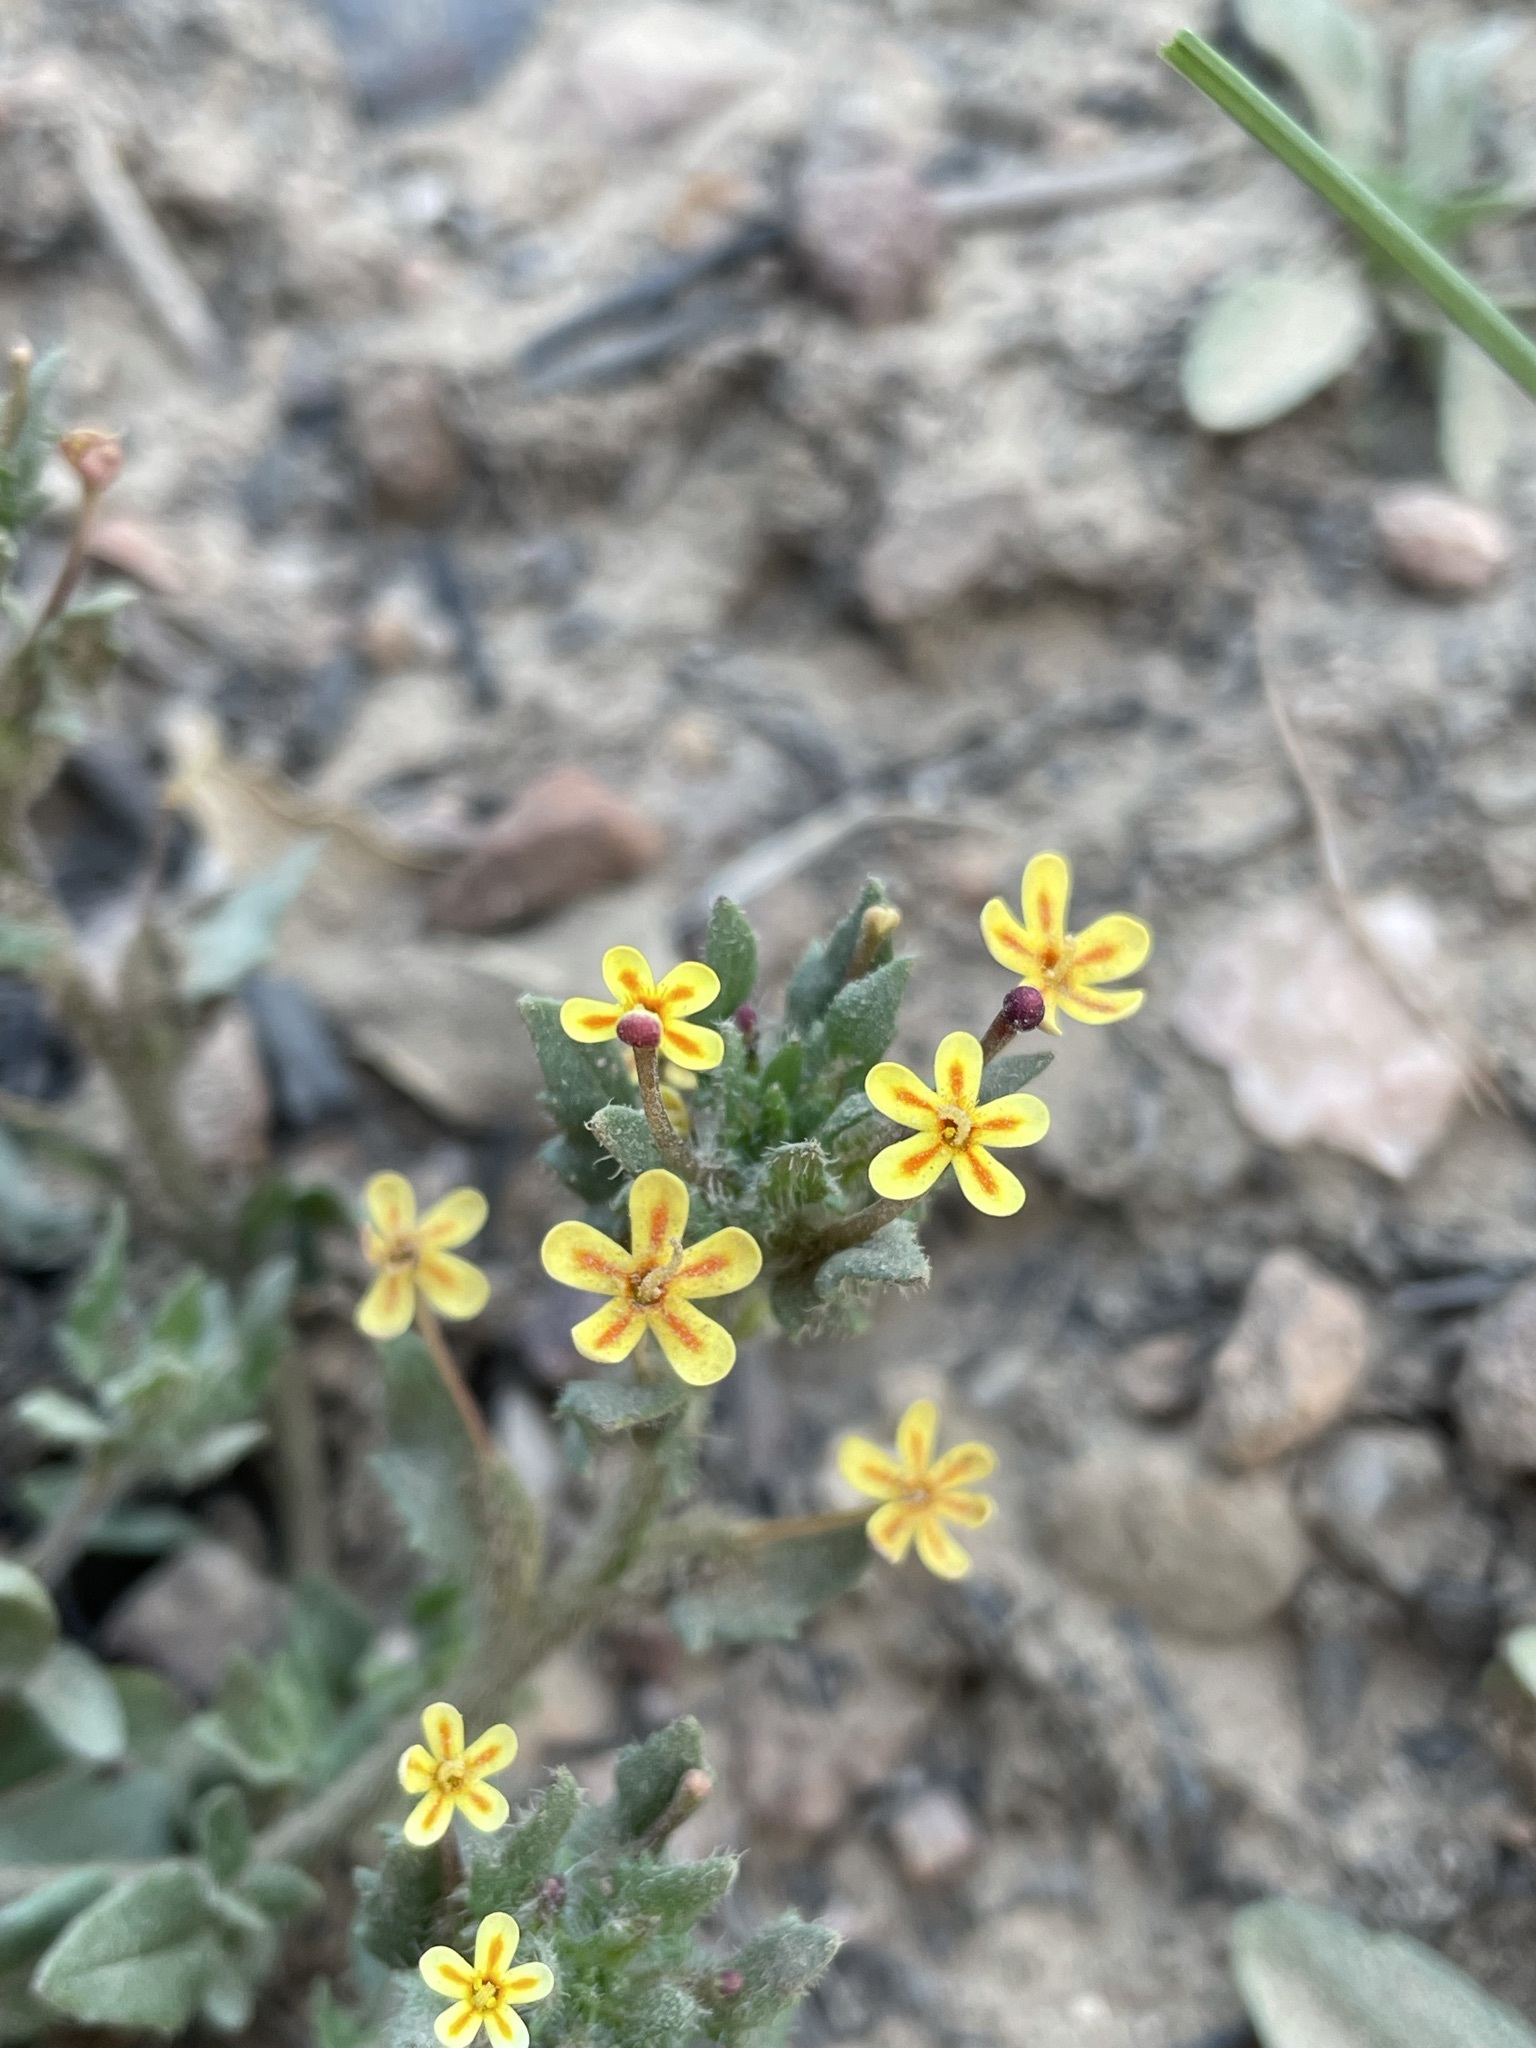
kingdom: Plantae
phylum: Tracheophyta
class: Magnoliopsida
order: Lamiales
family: Scrophulariaceae
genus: Zaluzianskya
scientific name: Zaluzianskya divaricata
